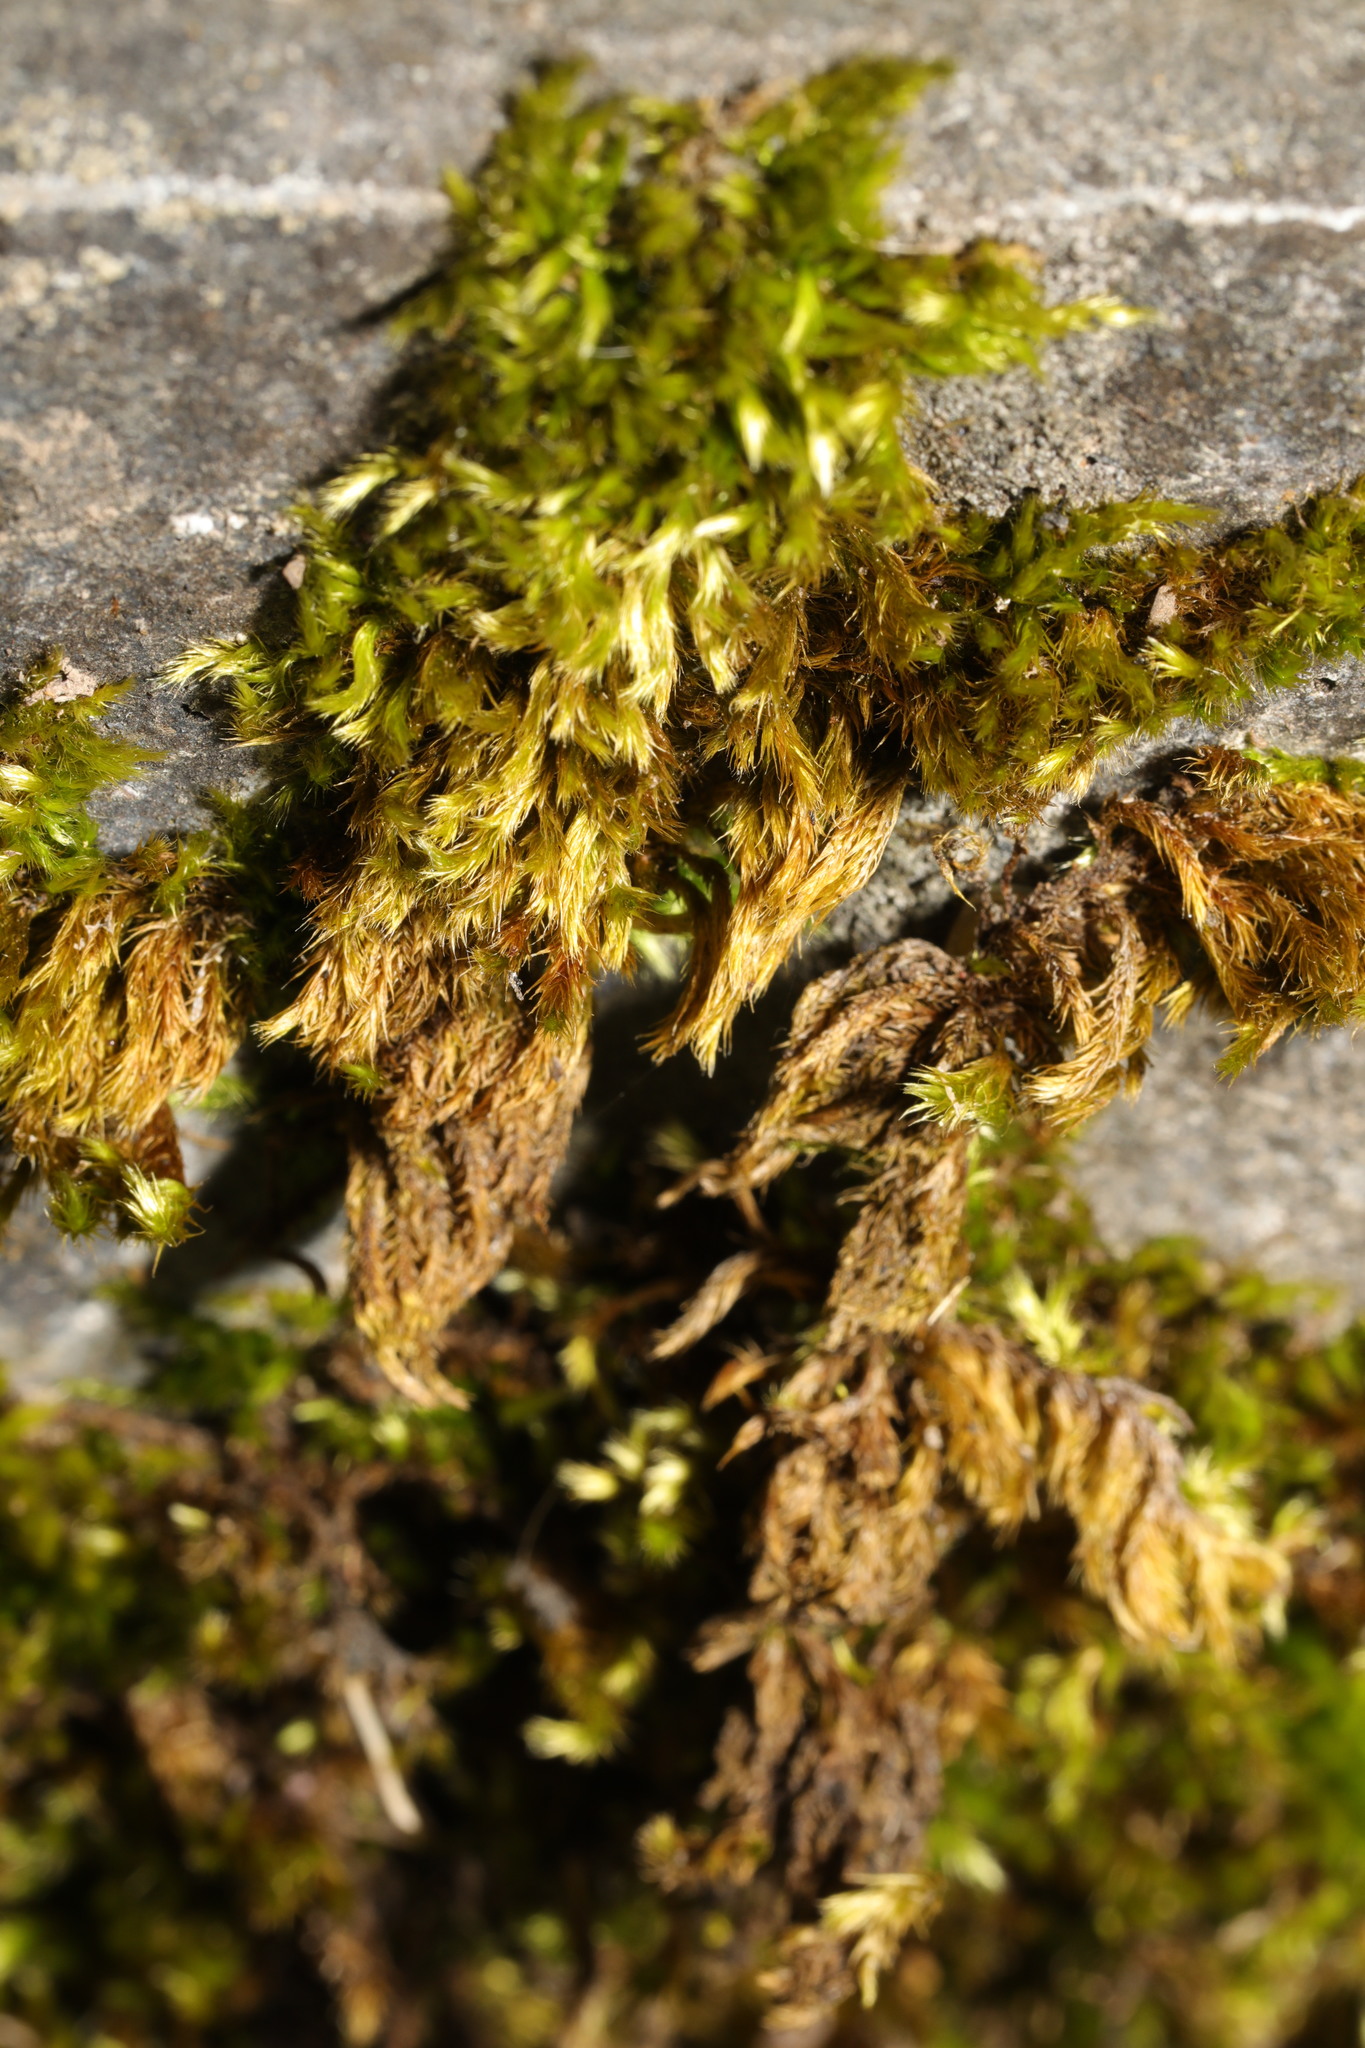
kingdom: Plantae
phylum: Bryophyta
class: Bryopsida
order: Hypnales
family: Brachytheciaceae
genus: Homalothecium
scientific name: Homalothecium sericeum
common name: Silky wall feather-moss
